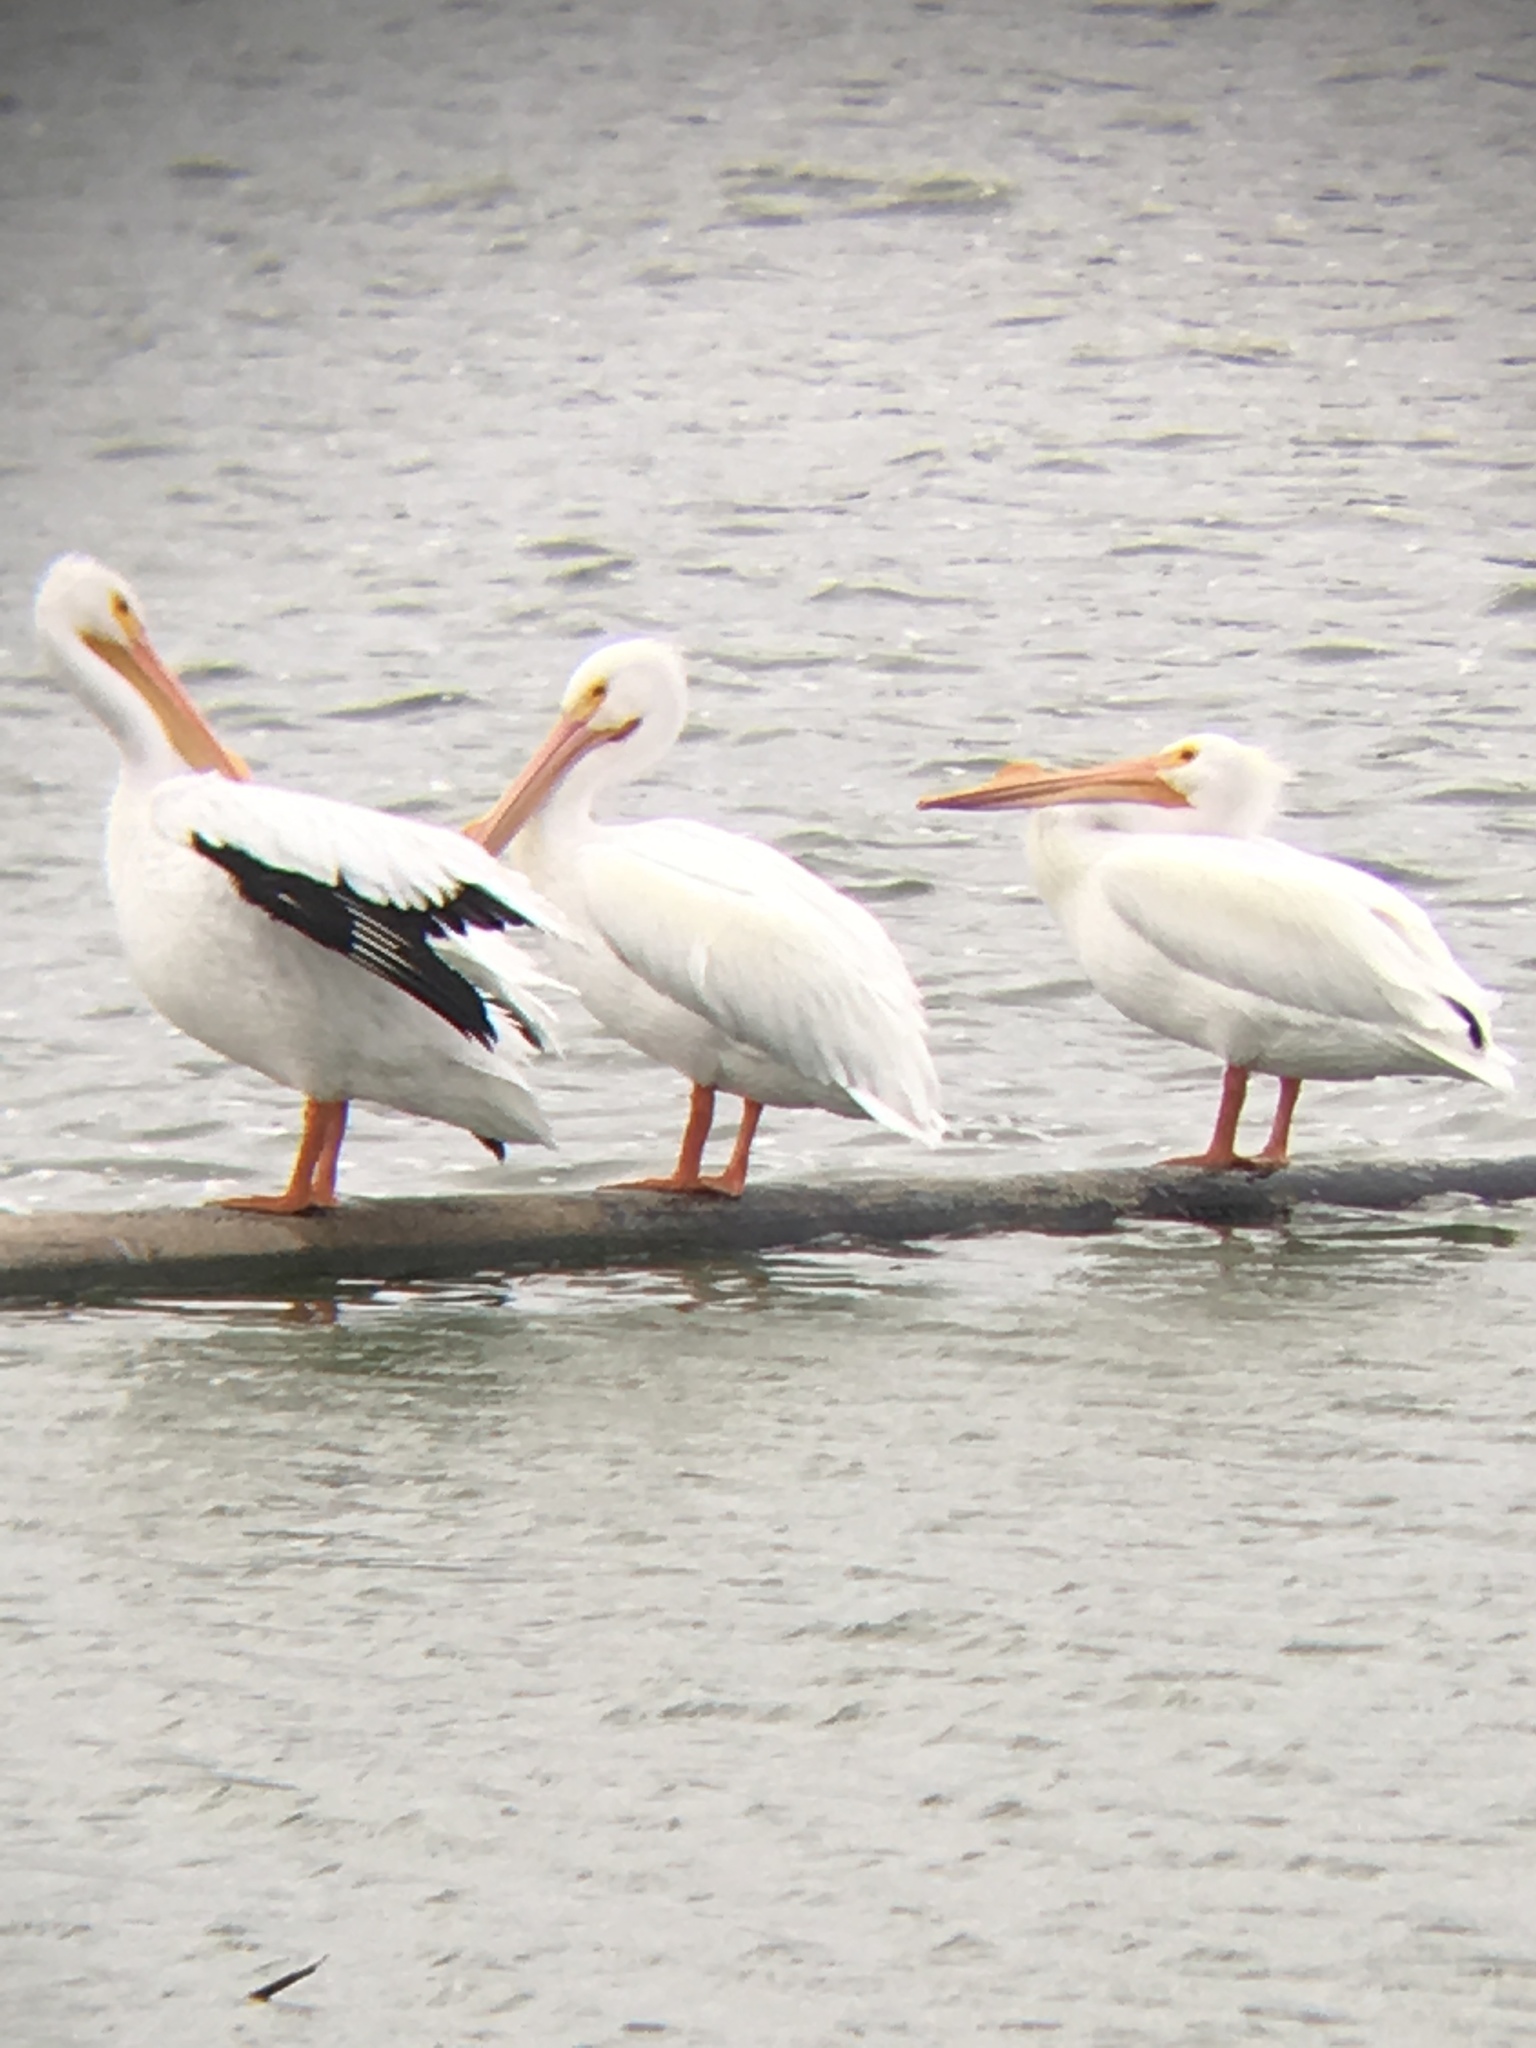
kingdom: Animalia
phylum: Chordata
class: Aves
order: Pelecaniformes
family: Pelecanidae
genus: Pelecanus
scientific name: Pelecanus erythrorhynchos
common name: American white pelican
